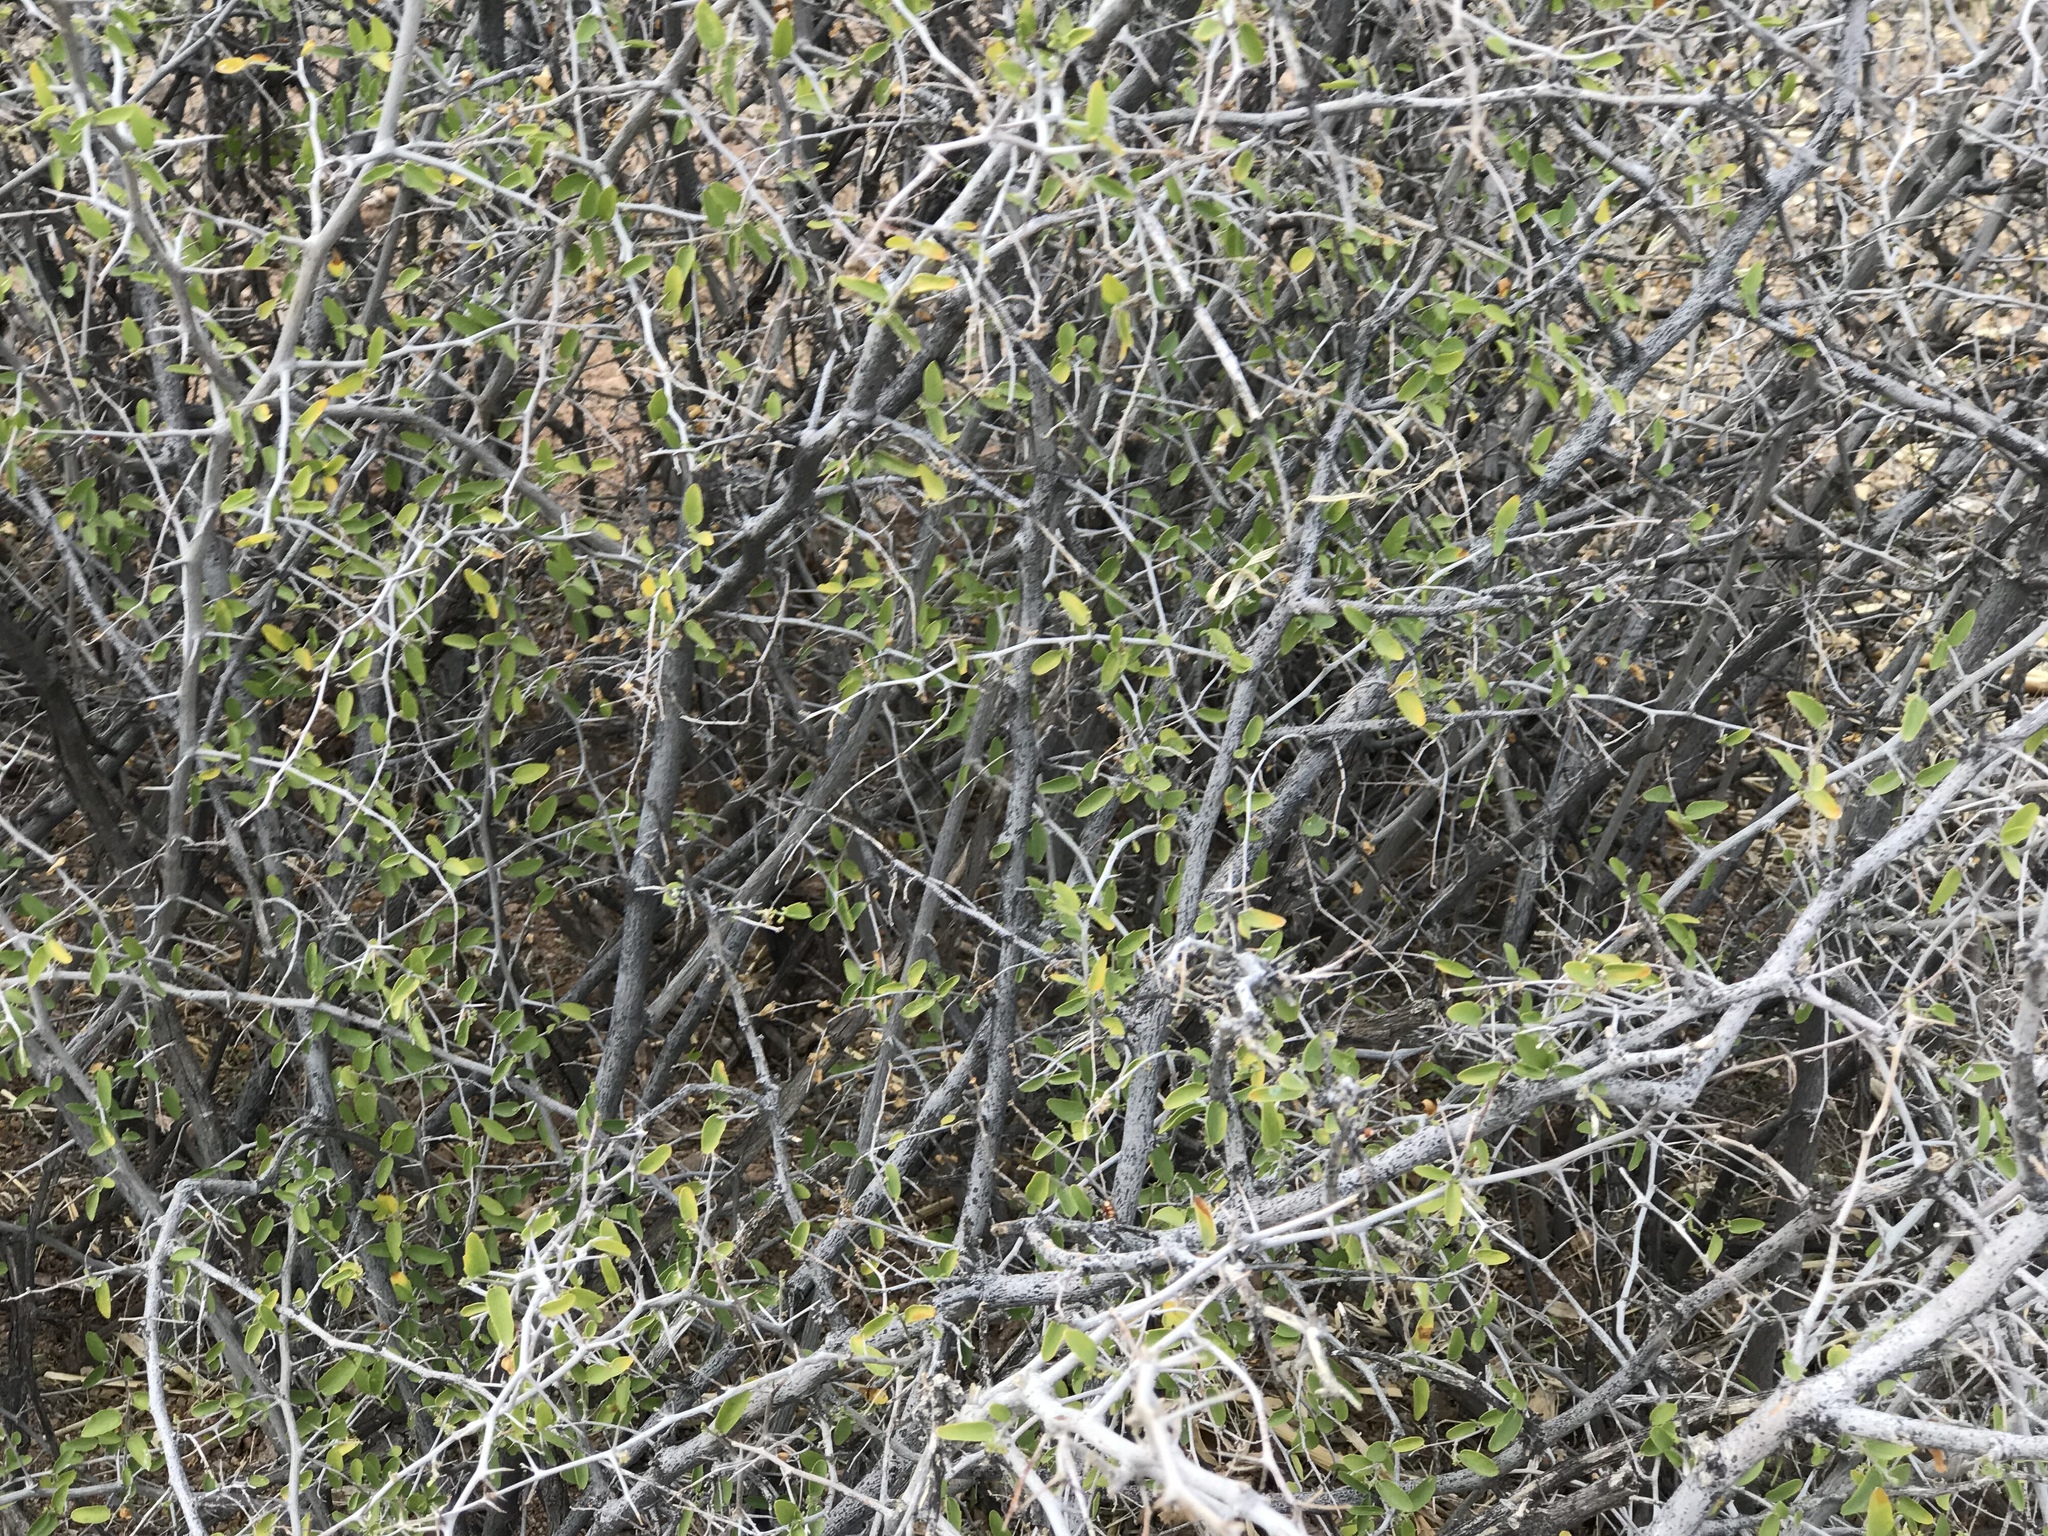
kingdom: Plantae
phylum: Tracheophyta
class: Magnoliopsida
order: Rosales
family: Cannabaceae
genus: Celtis
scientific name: Celtis pallida
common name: Desert hackberry
